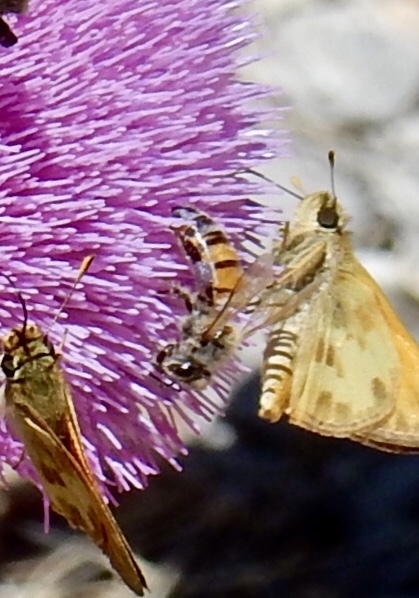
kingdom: Animalia
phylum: Arthropoda
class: Insecta
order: Hymenoptera
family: Apidae
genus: Apis
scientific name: Apis mellifera
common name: Honey bee
